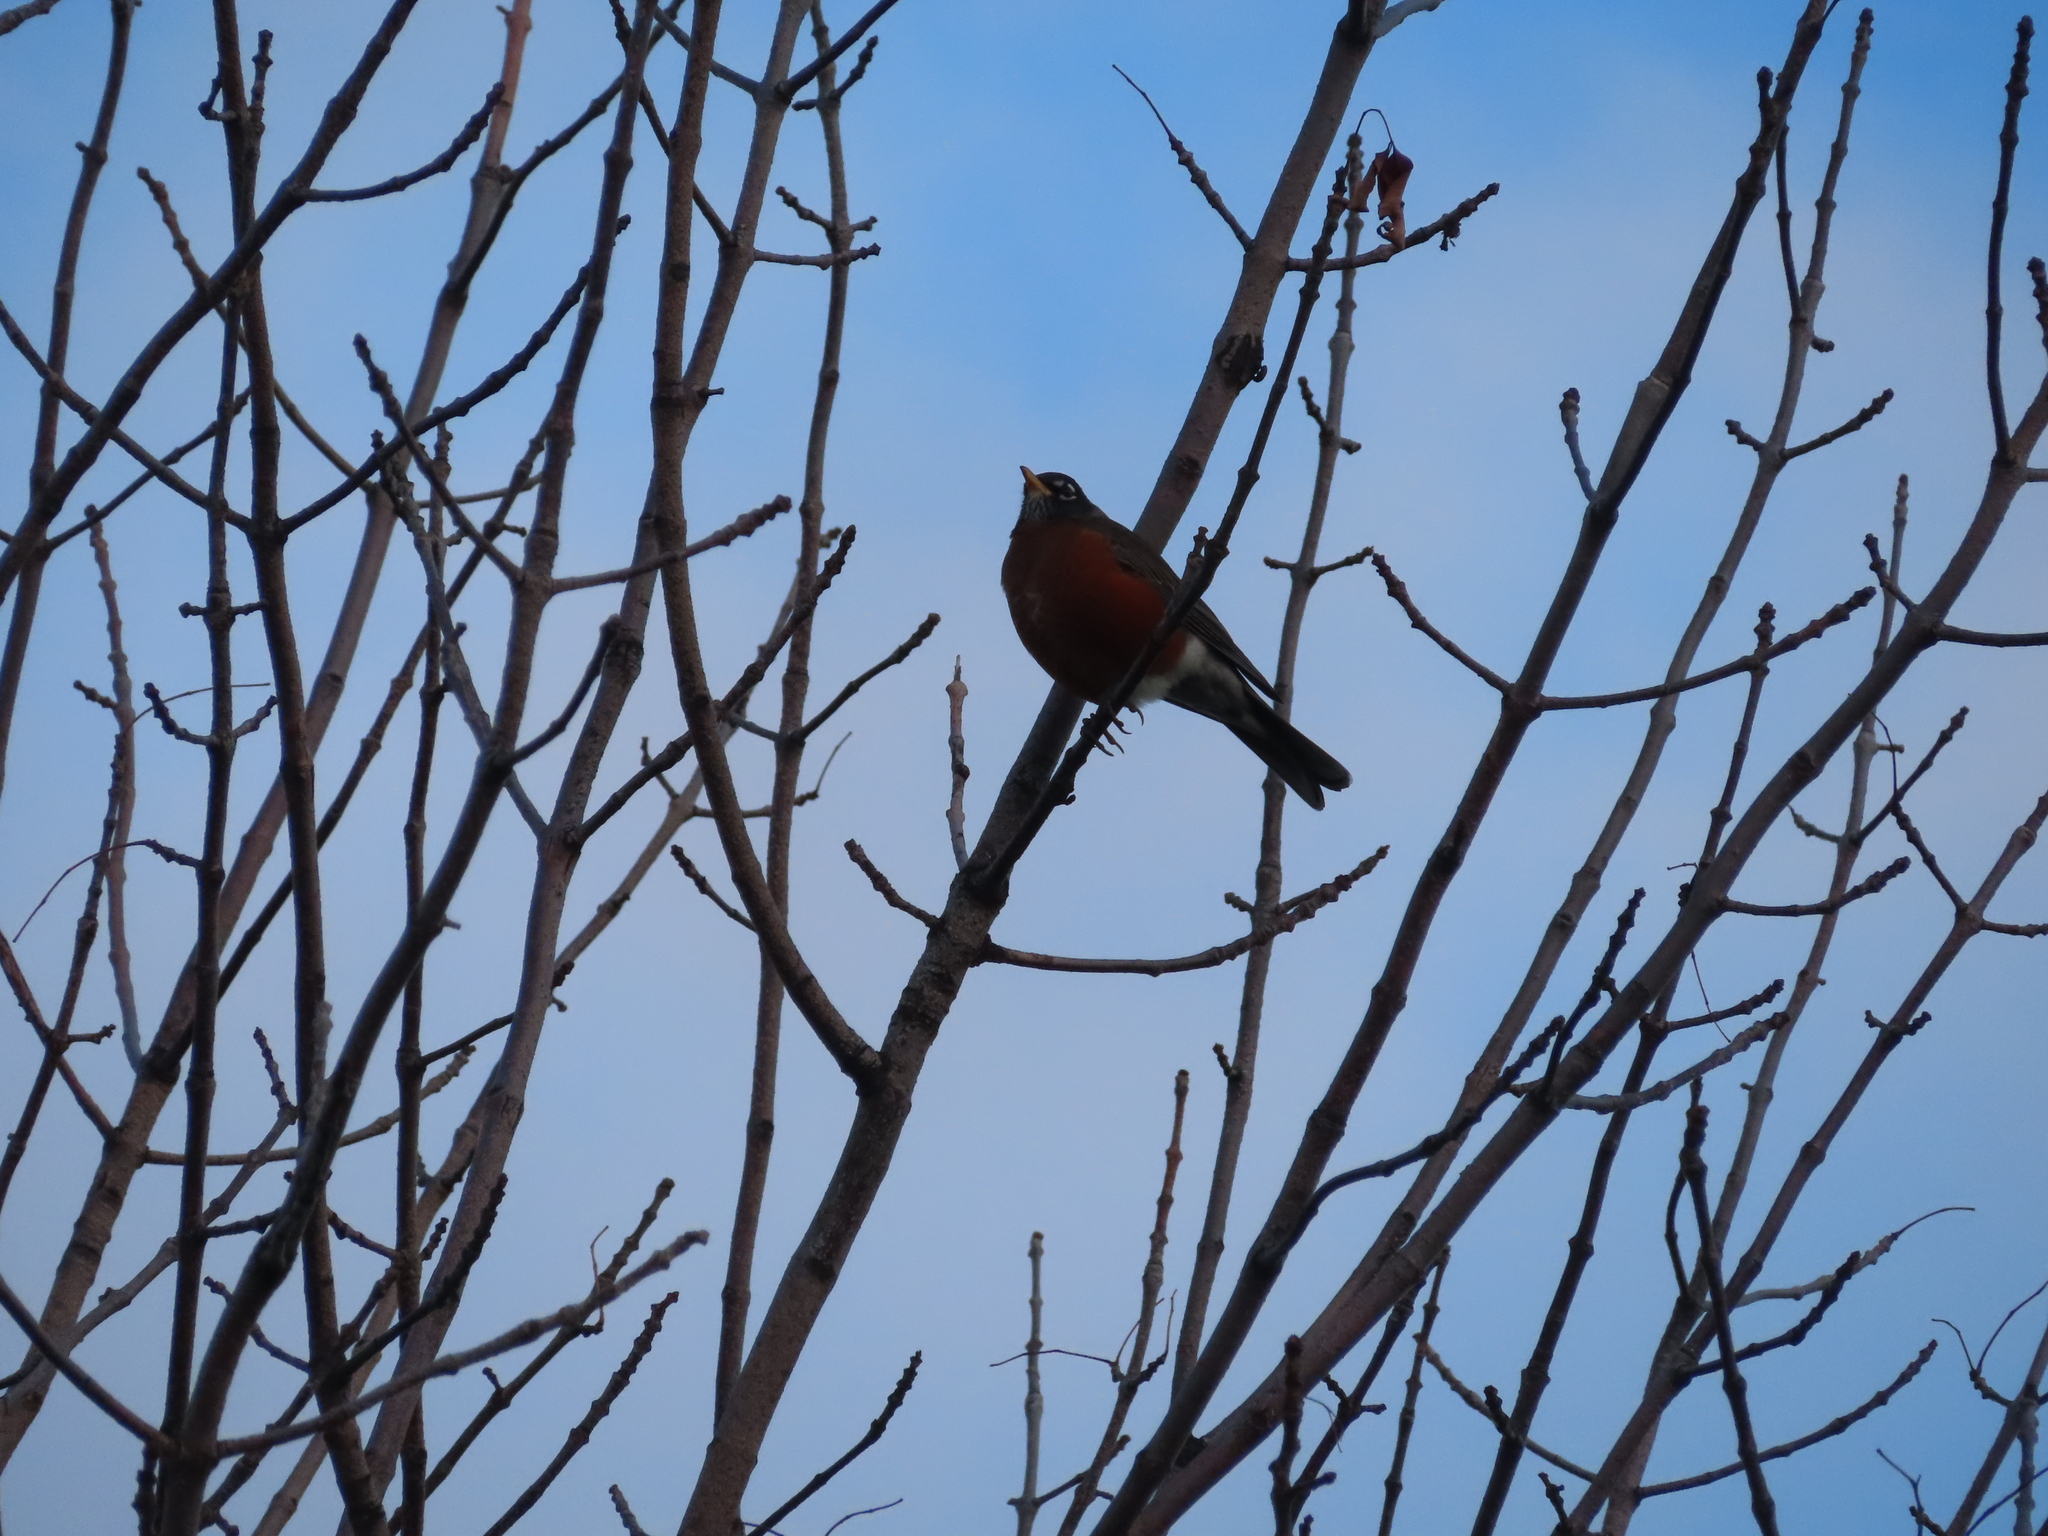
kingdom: Animalia
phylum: Chordata
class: Aves
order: Passeriformes
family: Turdidae
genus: Turdus
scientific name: Turdus migratorius
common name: American robin
